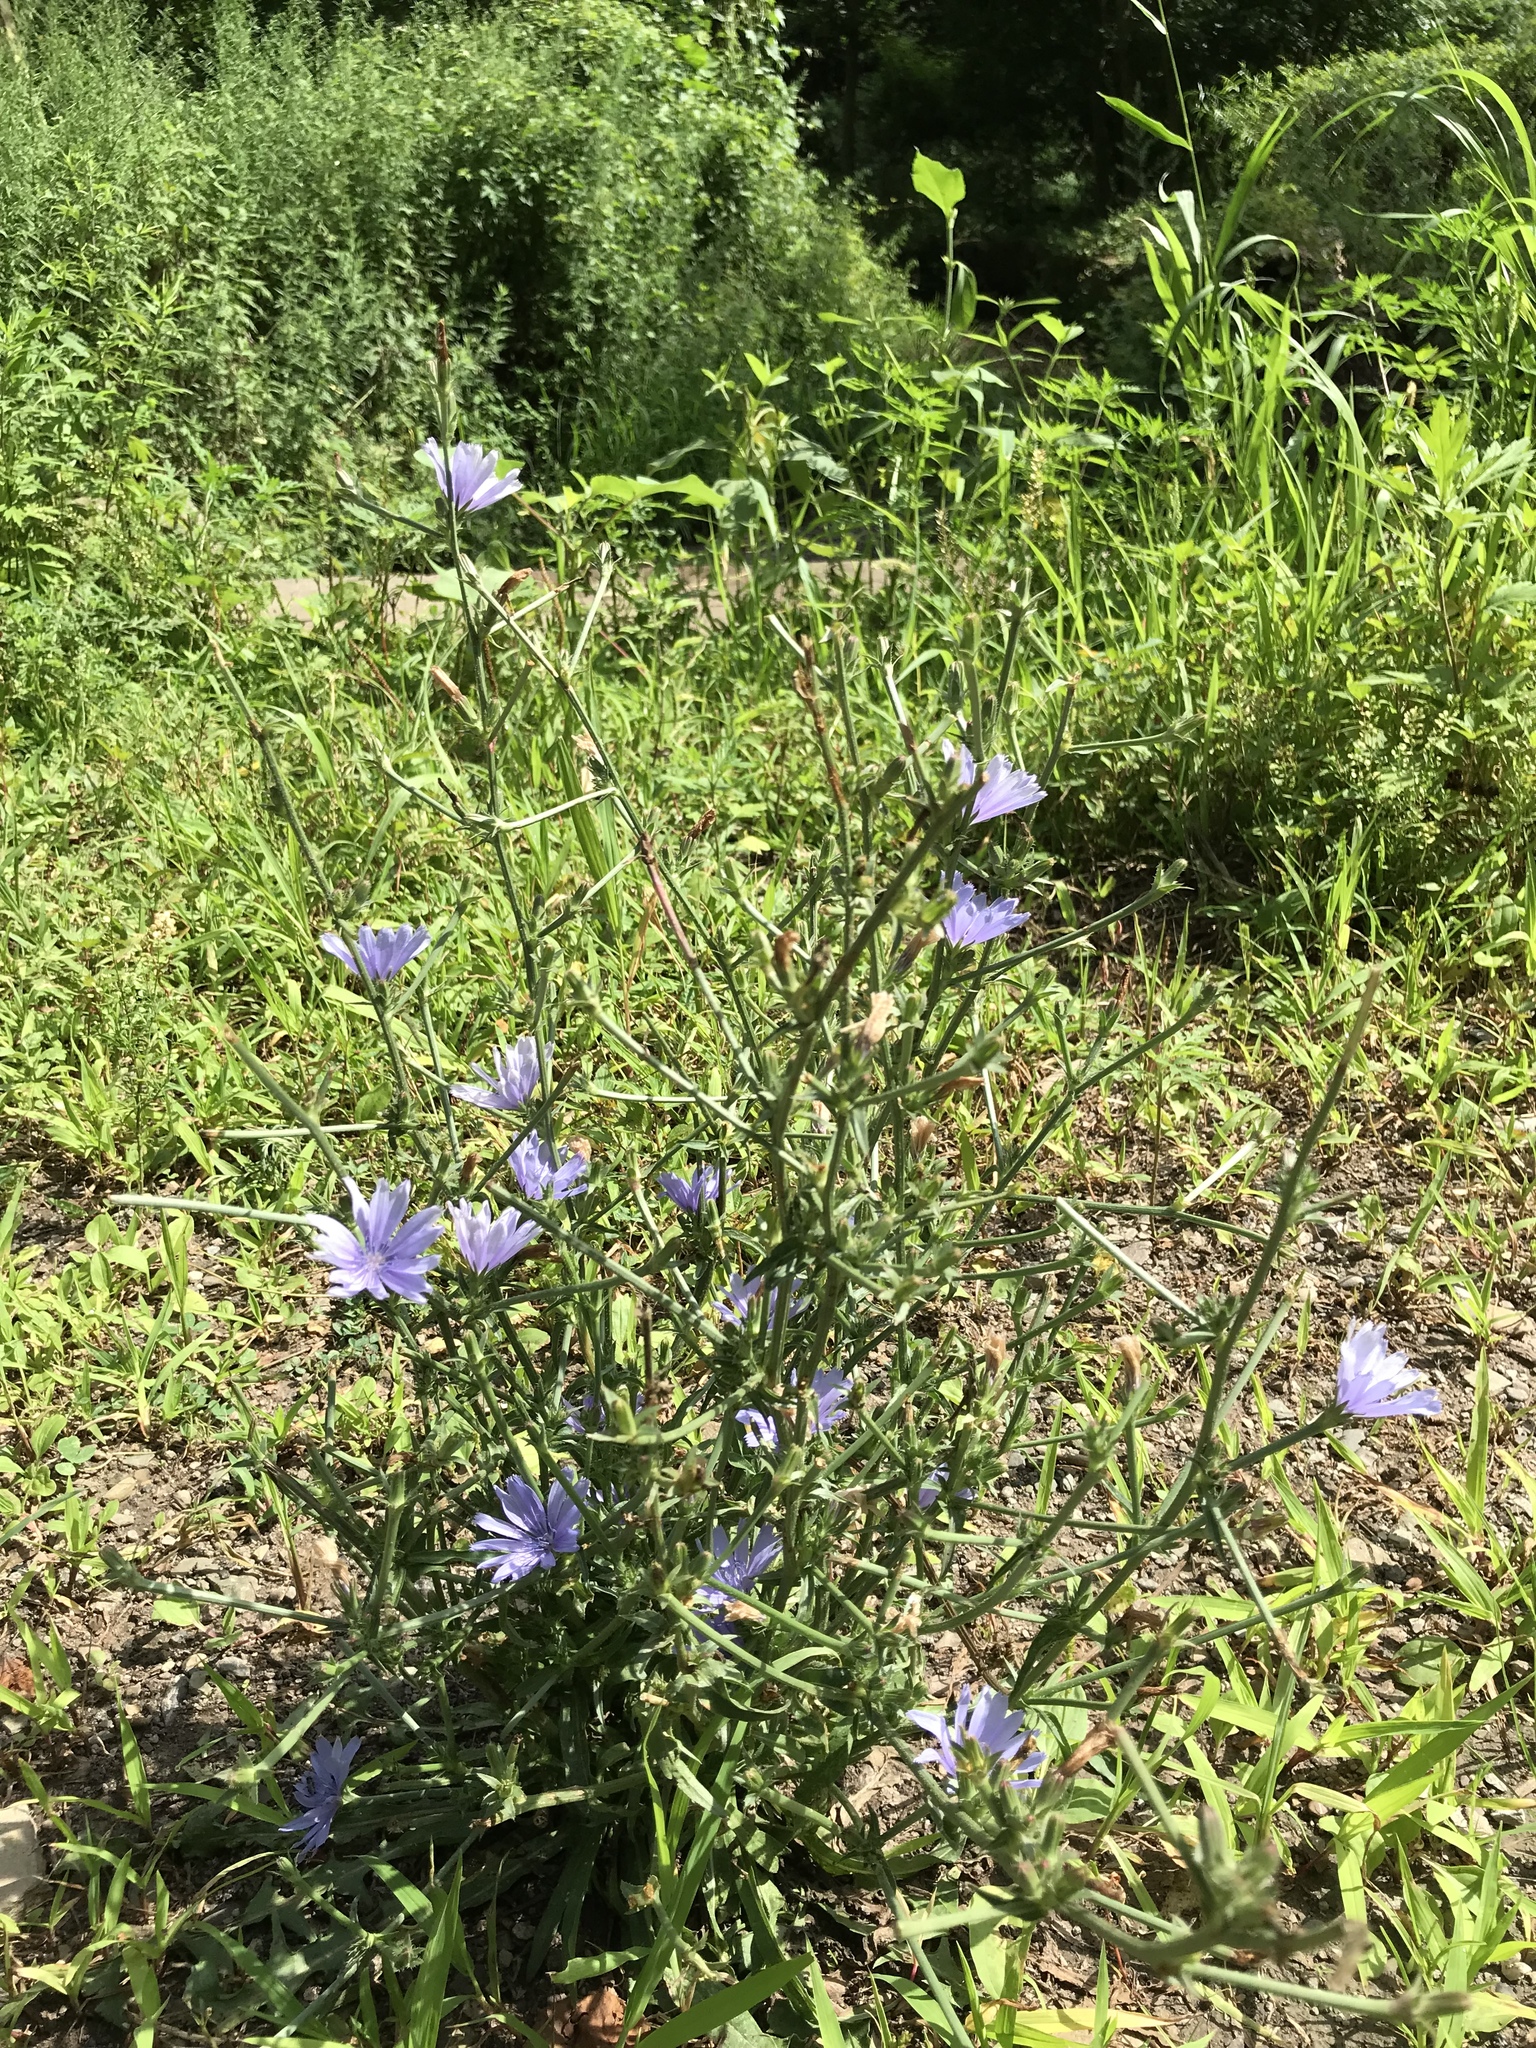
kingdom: Plantae
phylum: Tracheophyta
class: Magnoliopsida
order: Asterales
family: Asteraceae
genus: Cichorium
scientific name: Cichorium intybus
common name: Chicory
